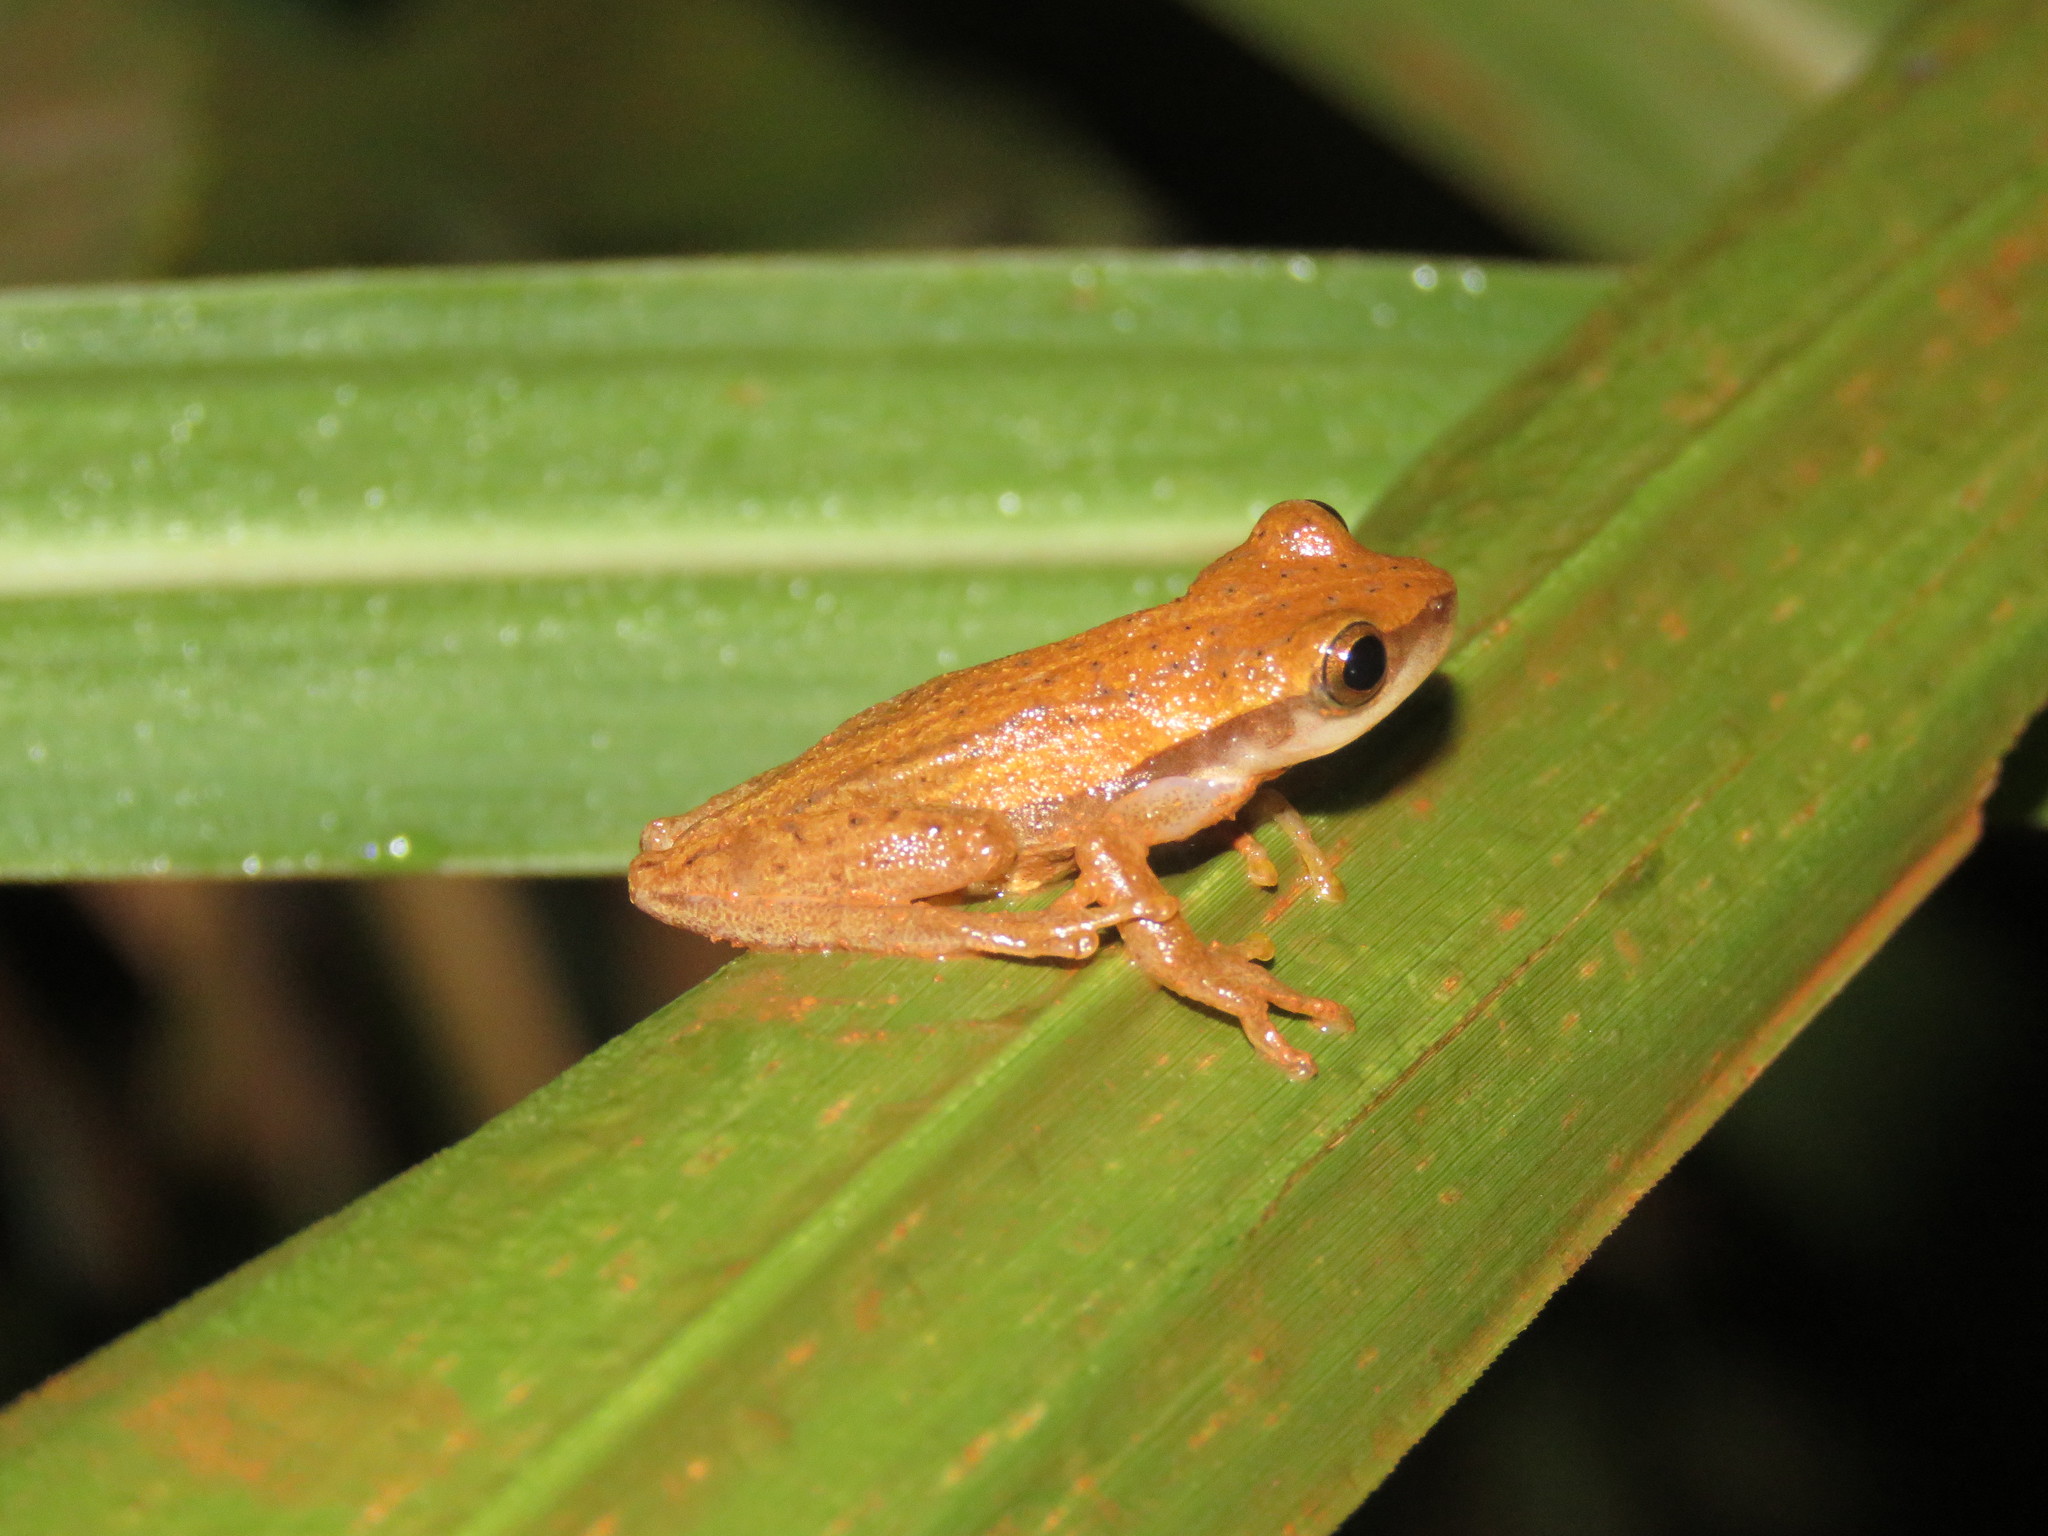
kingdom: Animalia
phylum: Chordata
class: Amphibia
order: Anura
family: Hylidae
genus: Dendropsophus
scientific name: Dendropsophus walfordi
